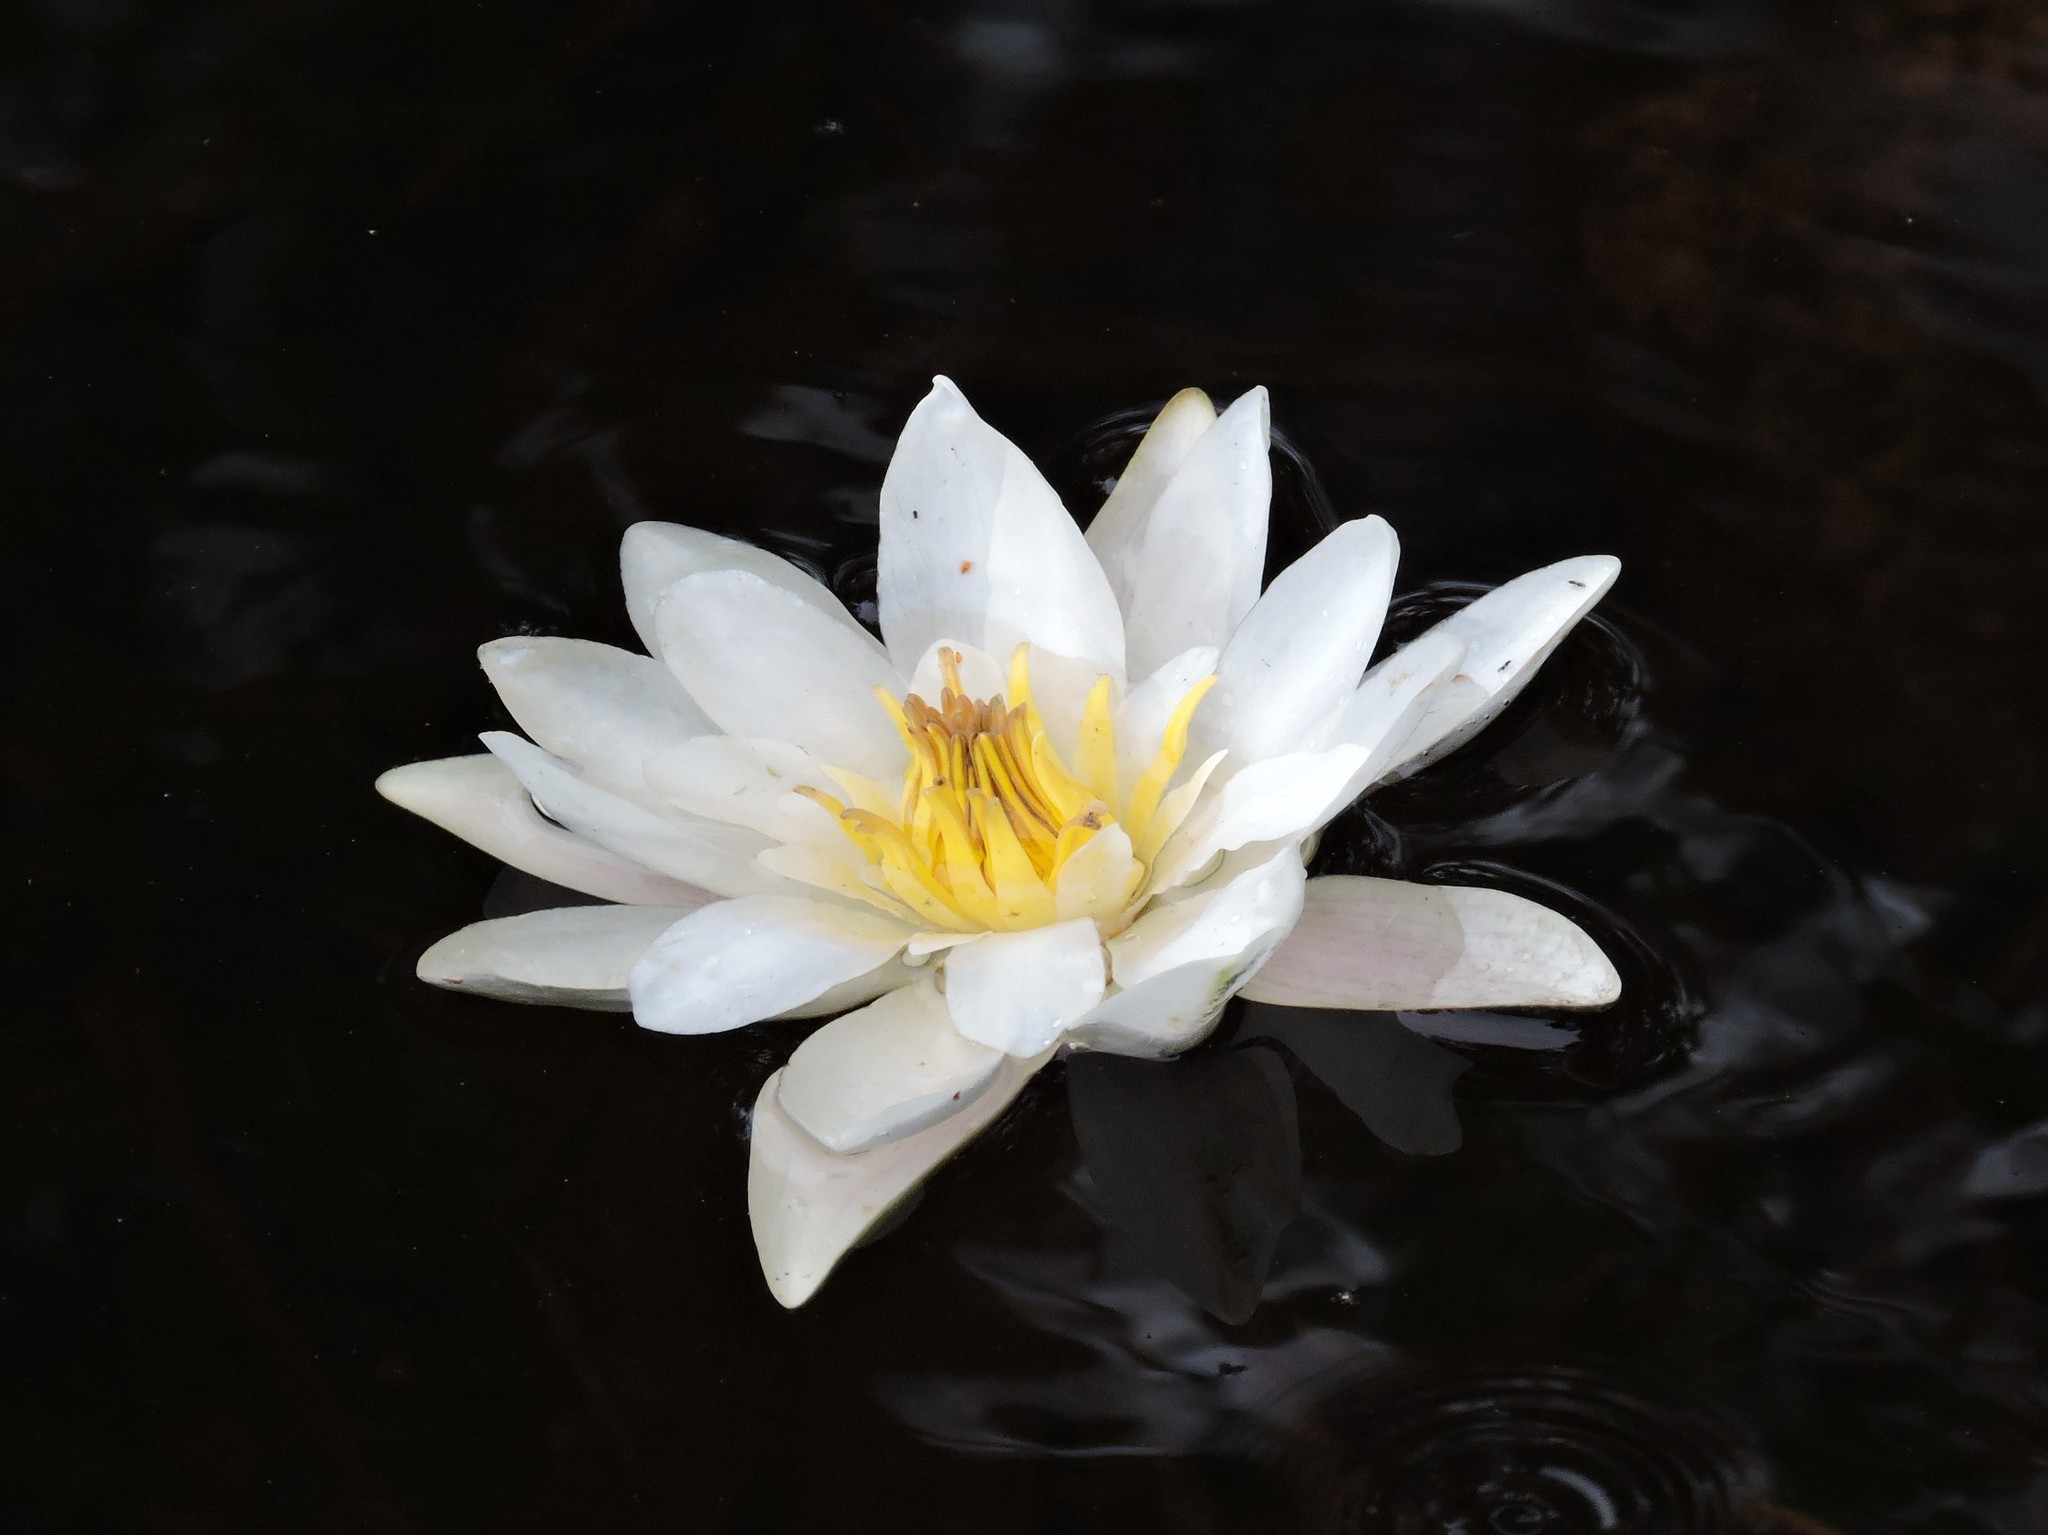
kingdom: Plantae
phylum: Tracheophyta
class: Magnoliopsida
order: Nymphaeales
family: Nymphaeaceae
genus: Nymphaea
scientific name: Nymphaea alba
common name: White water-lily
